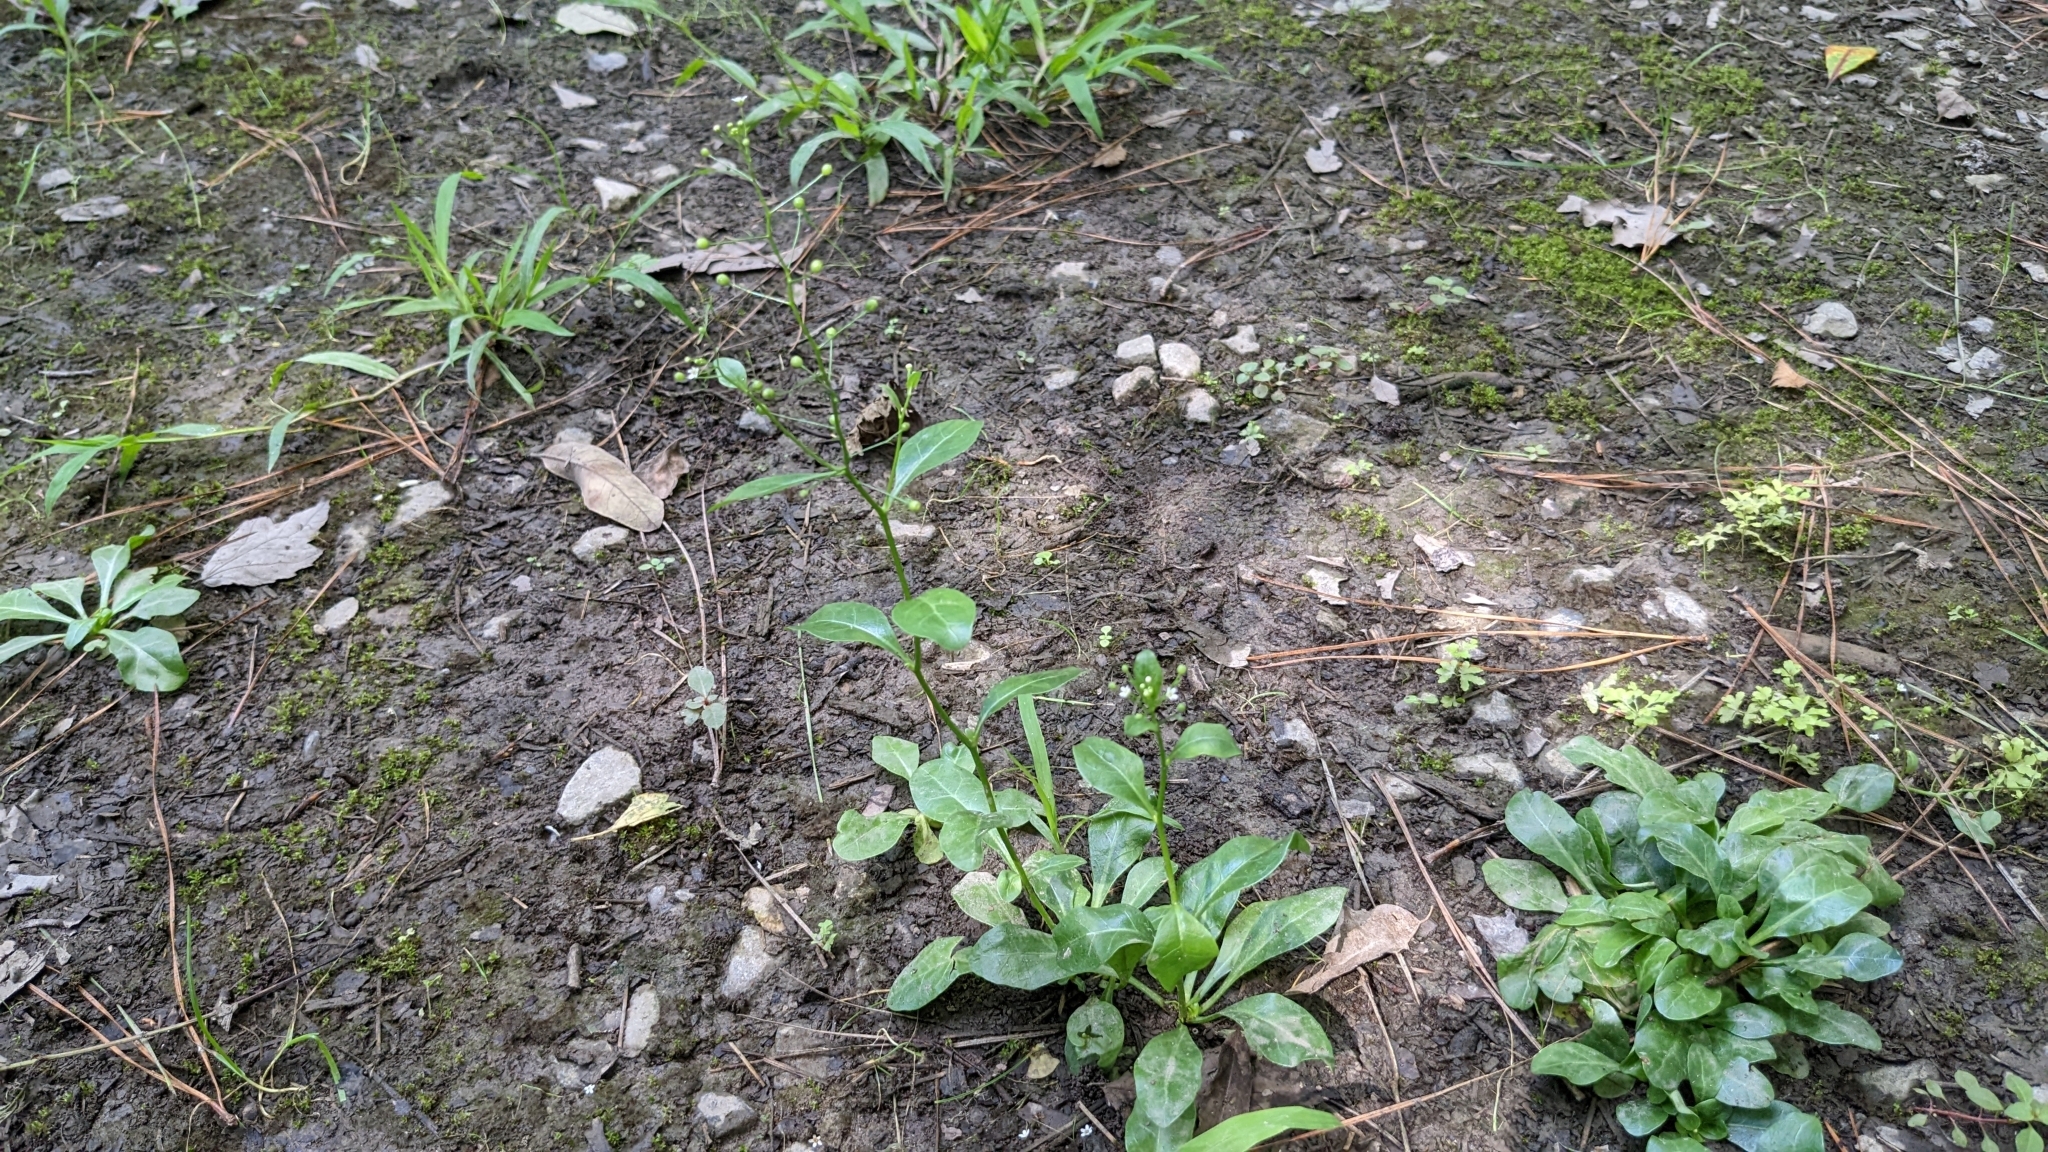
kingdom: Plantae
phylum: Tracheophyta
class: Magnoliopsida
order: Ericales
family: Primulaceae
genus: Samolus
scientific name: Samolus parviflorus
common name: False water pimpernel
